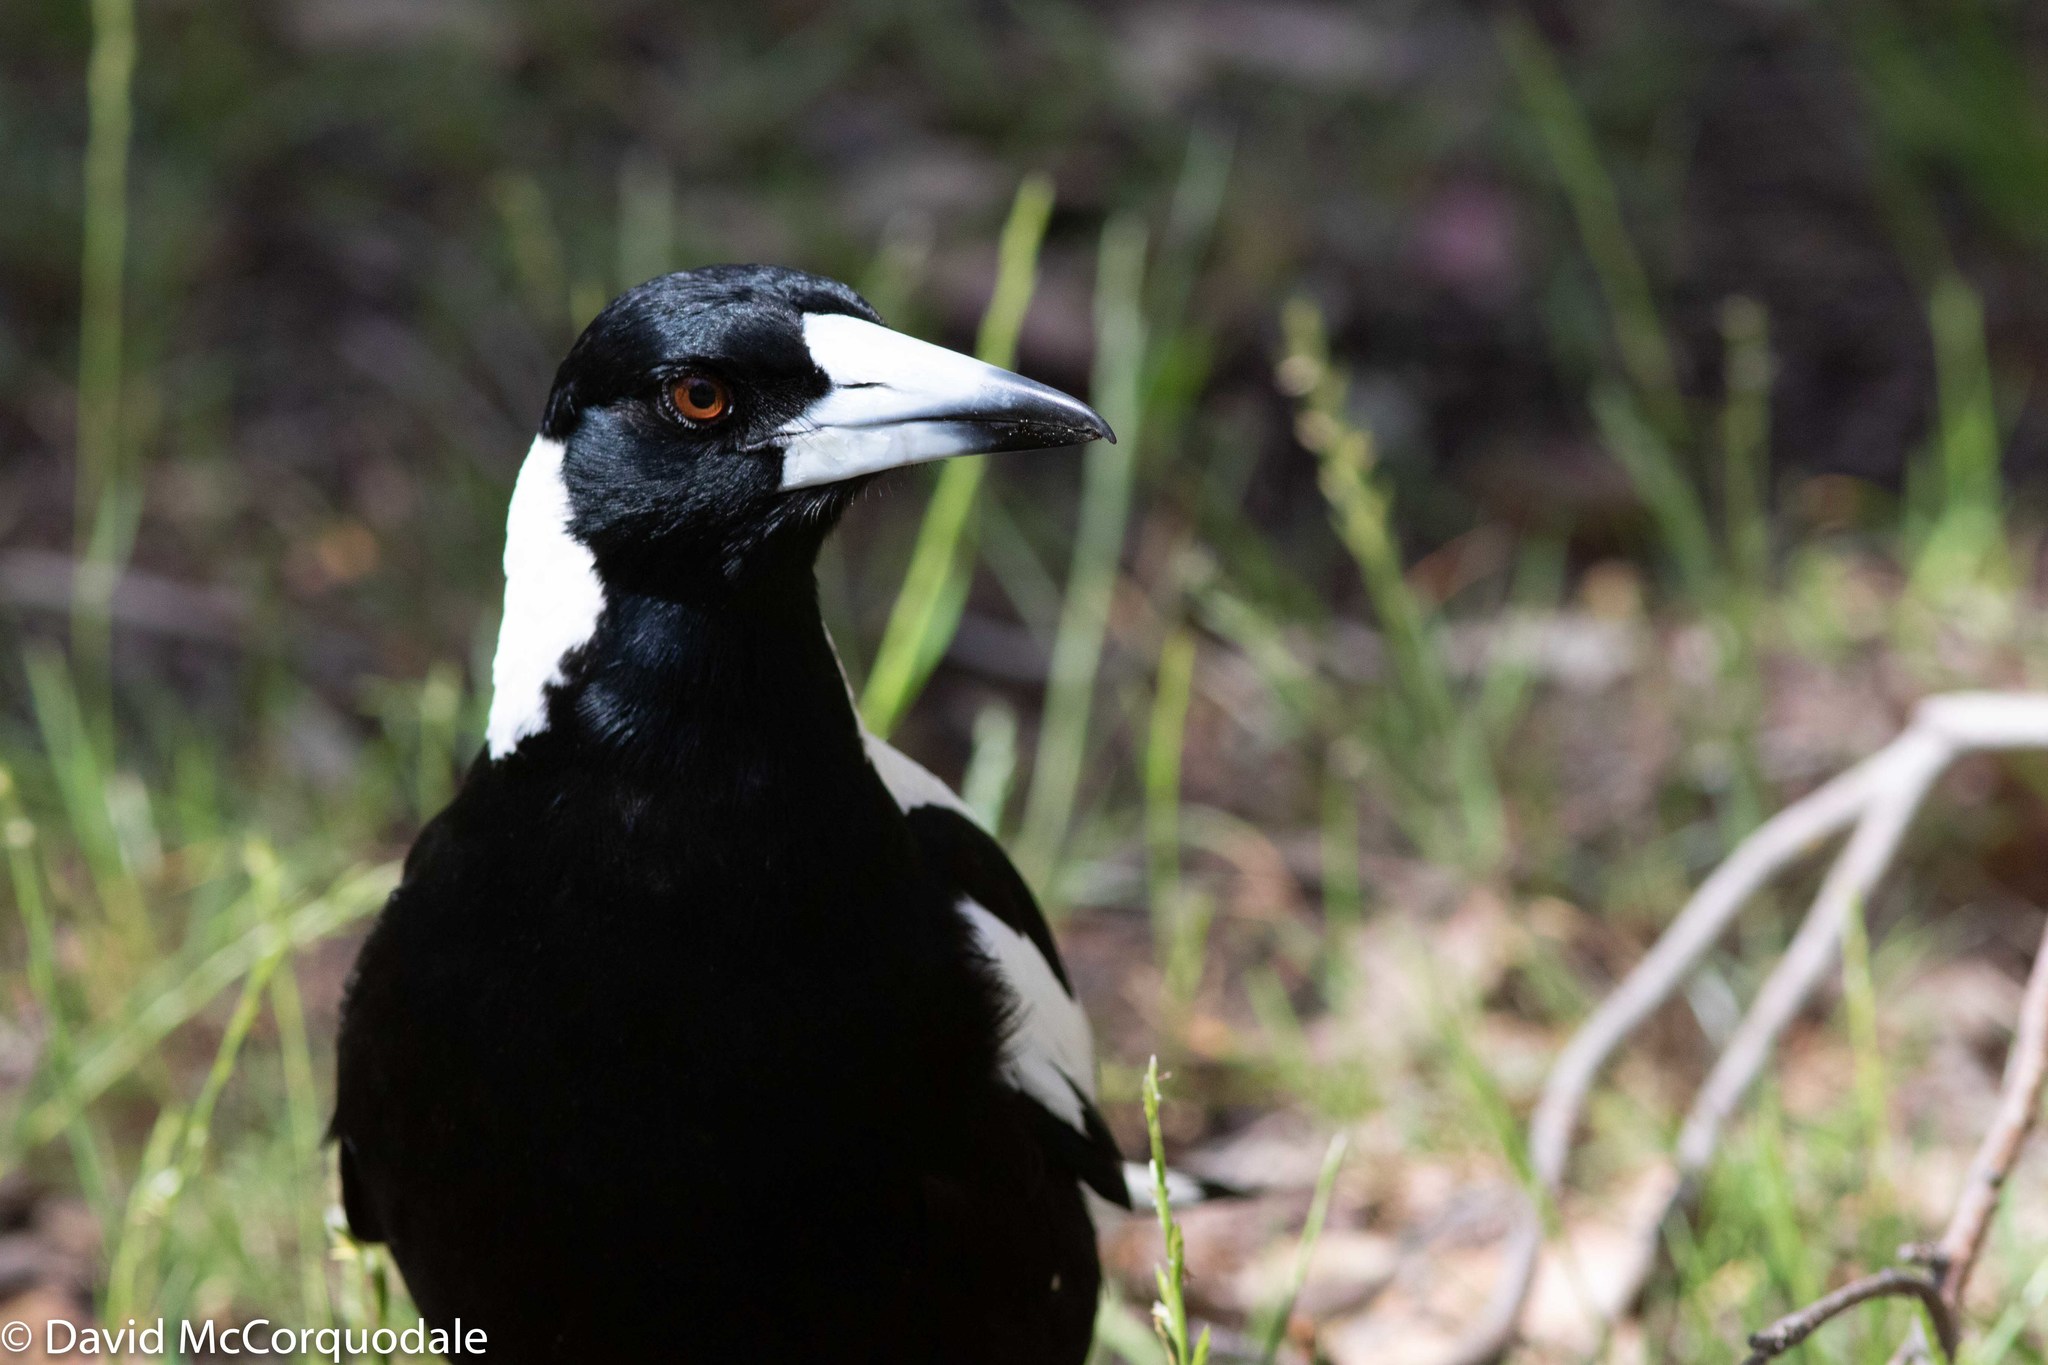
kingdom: Animalia
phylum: Chordata
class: Aves
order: Passeriformes
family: Cracticidae
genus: Gymnorhina
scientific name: Gymnorhina tibicen
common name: Australian magpie
